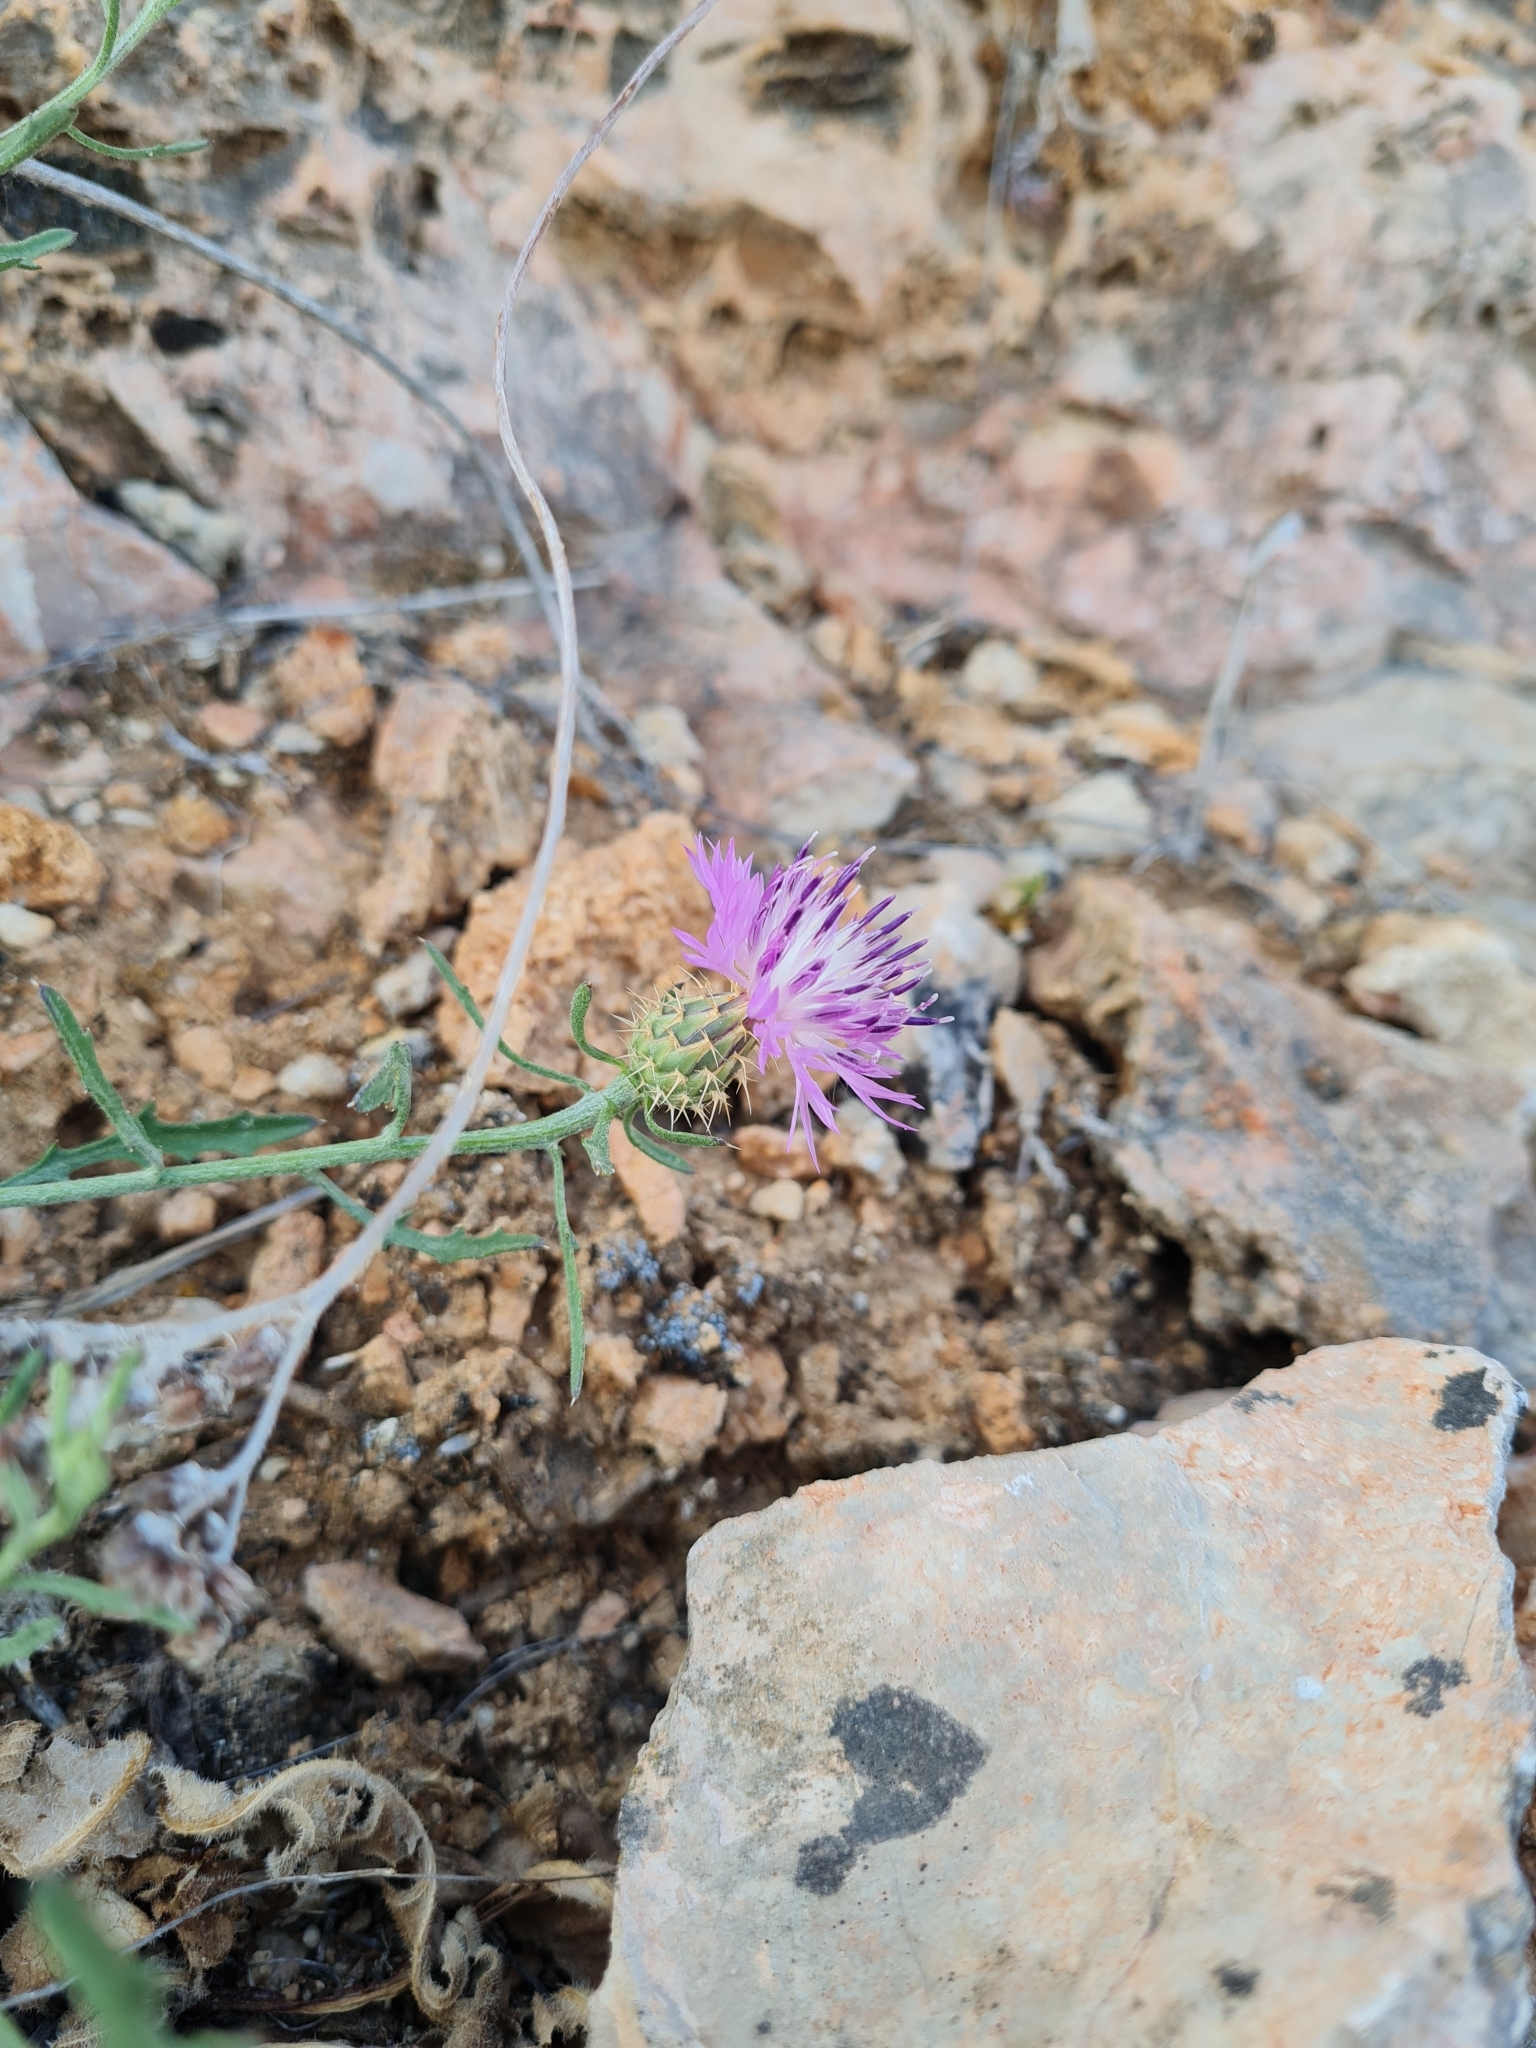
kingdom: Plantae
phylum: Tracheophyta
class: Magnoliopsida
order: Asterales
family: Asteraceae
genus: Centaurea
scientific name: Centaurea aspera
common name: Rough star-thistle
